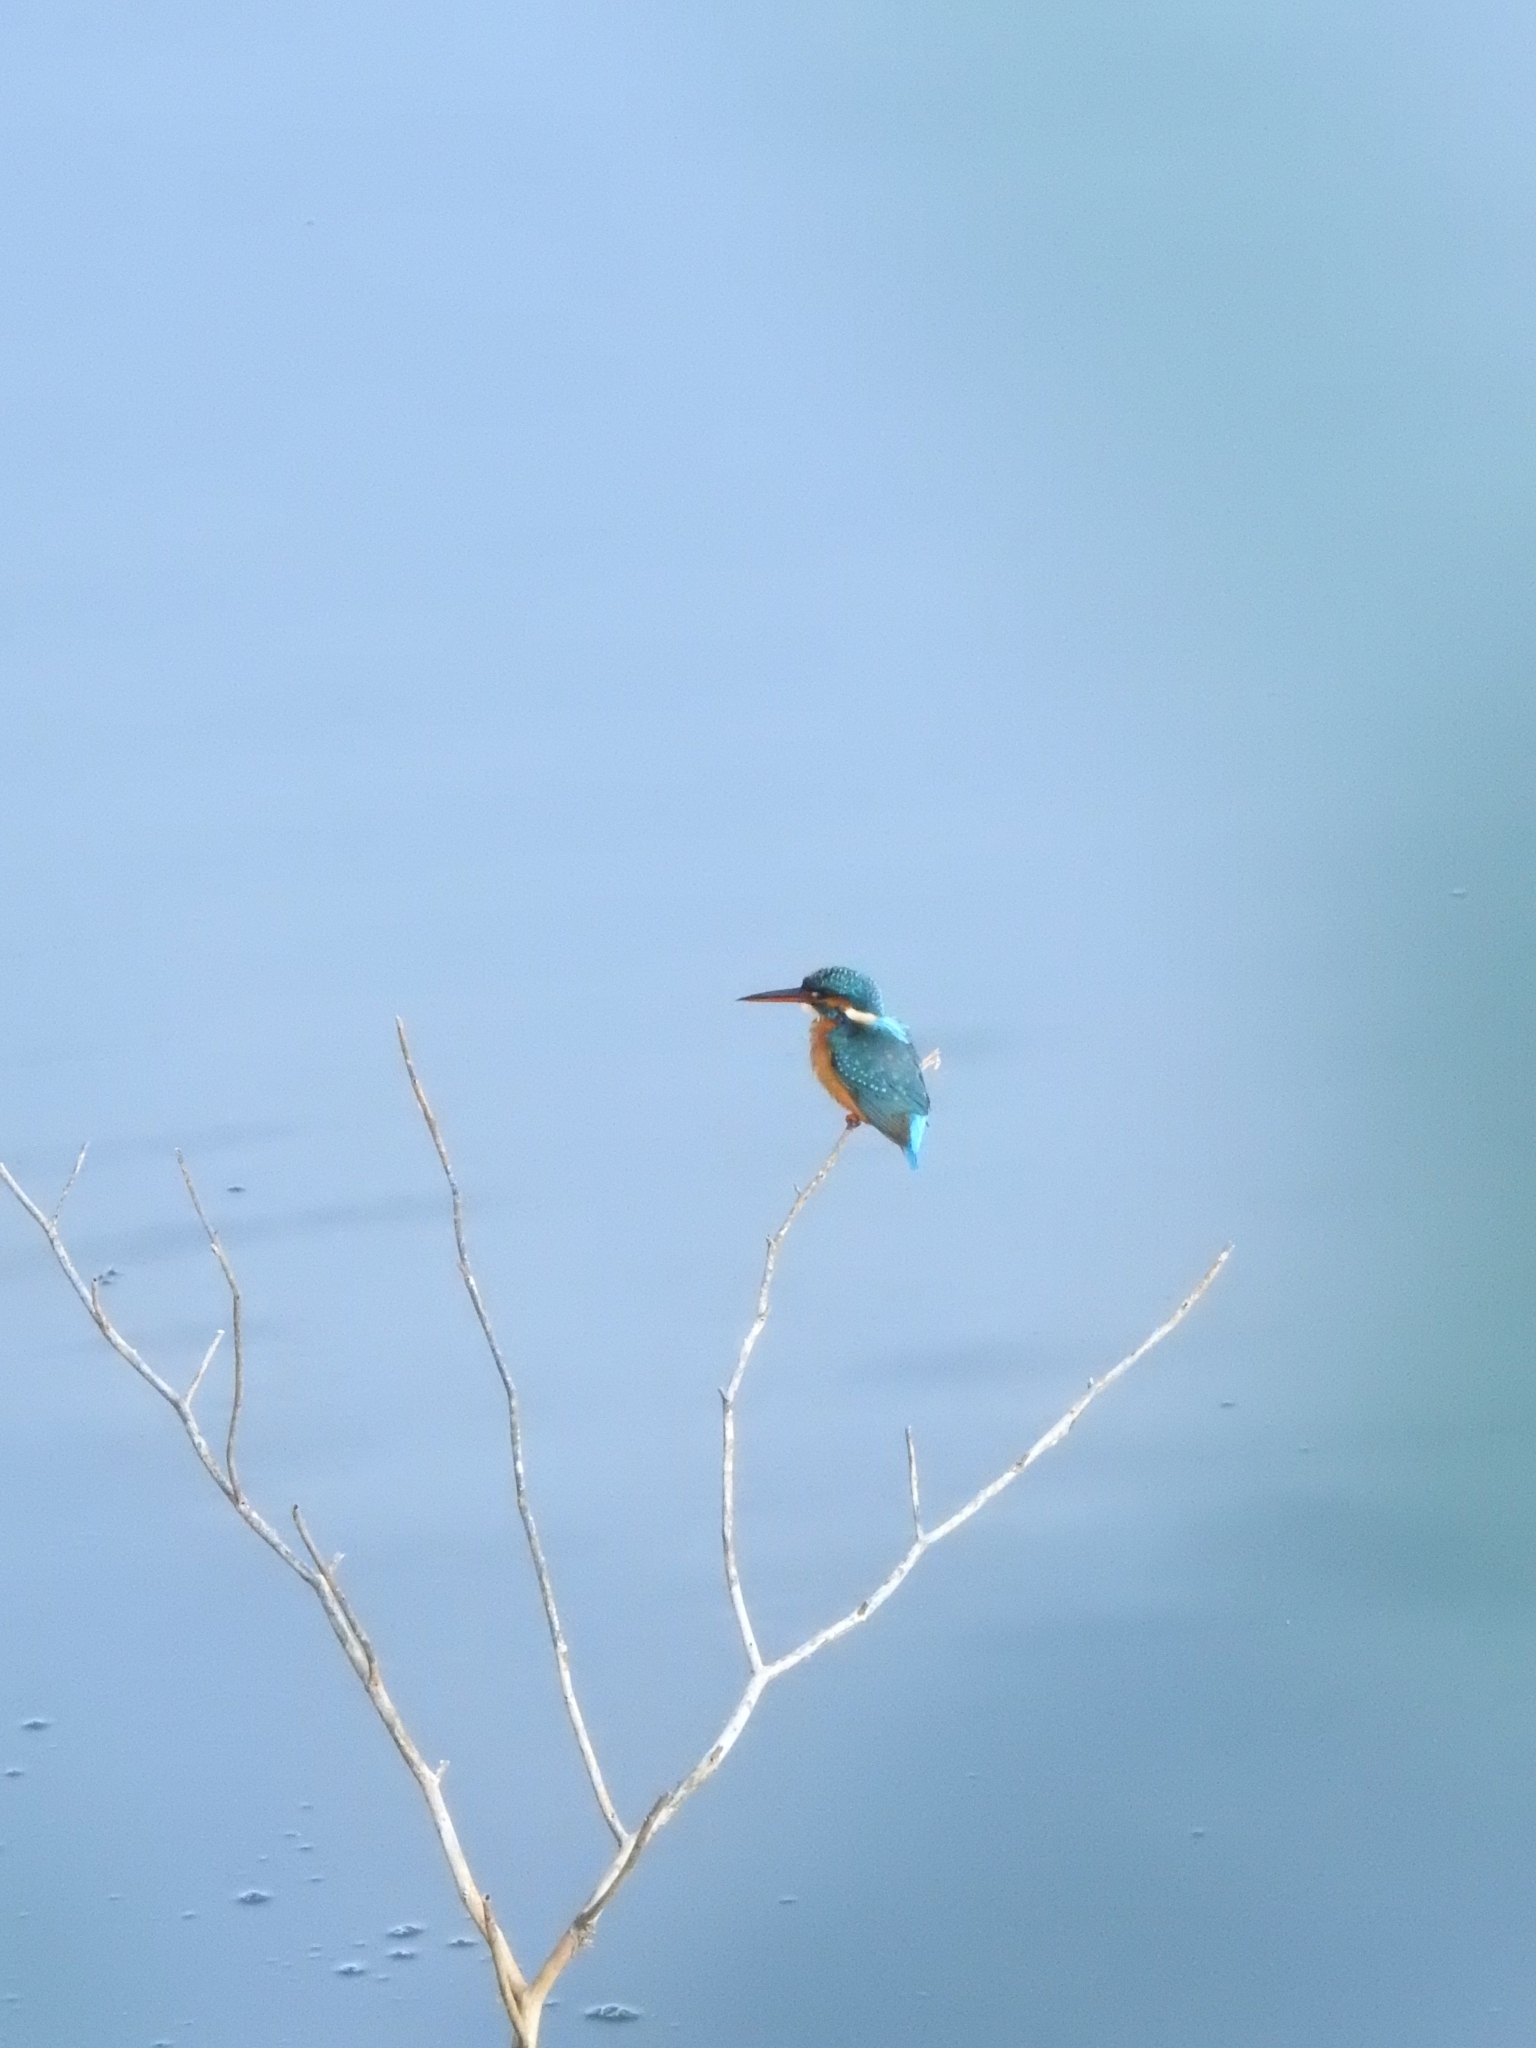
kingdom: Animalia
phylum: Chordata
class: Aves
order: Coraciiformes
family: Alcedinidae
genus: Alcedo
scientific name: Alcedo atthis
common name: Common kingfisher
